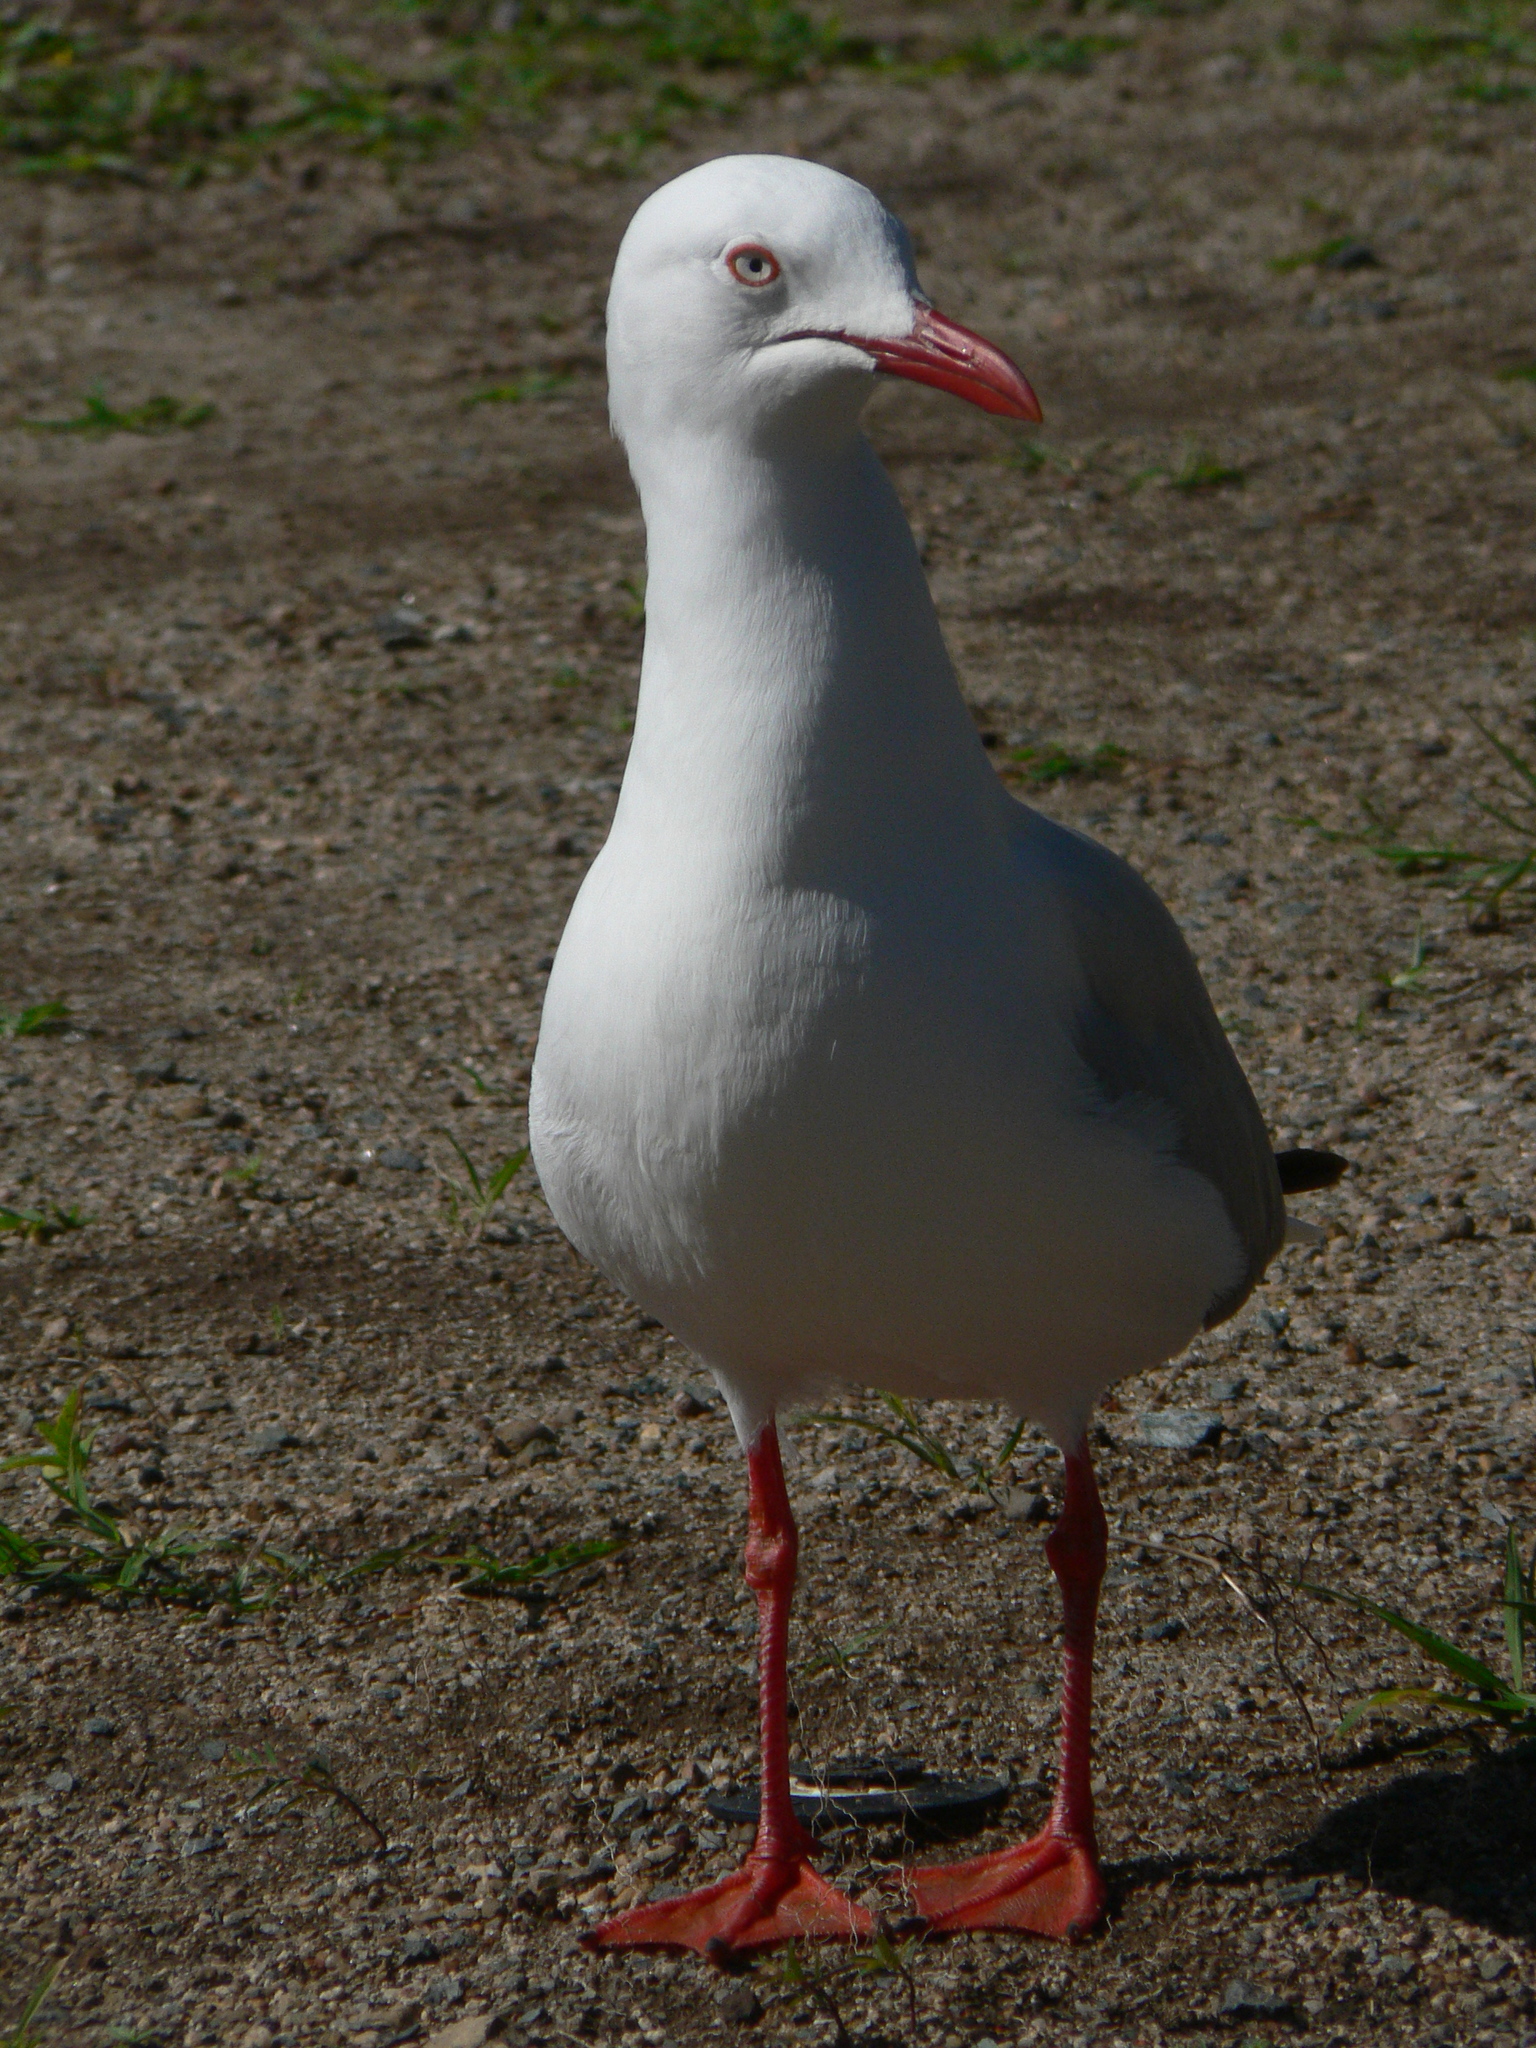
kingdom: Animalia
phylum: Chordata
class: Aves
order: Charadriiformes
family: Laridae
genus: Chroicocephalus
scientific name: Chroicocephalus novaehollandiae
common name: Silver gull
